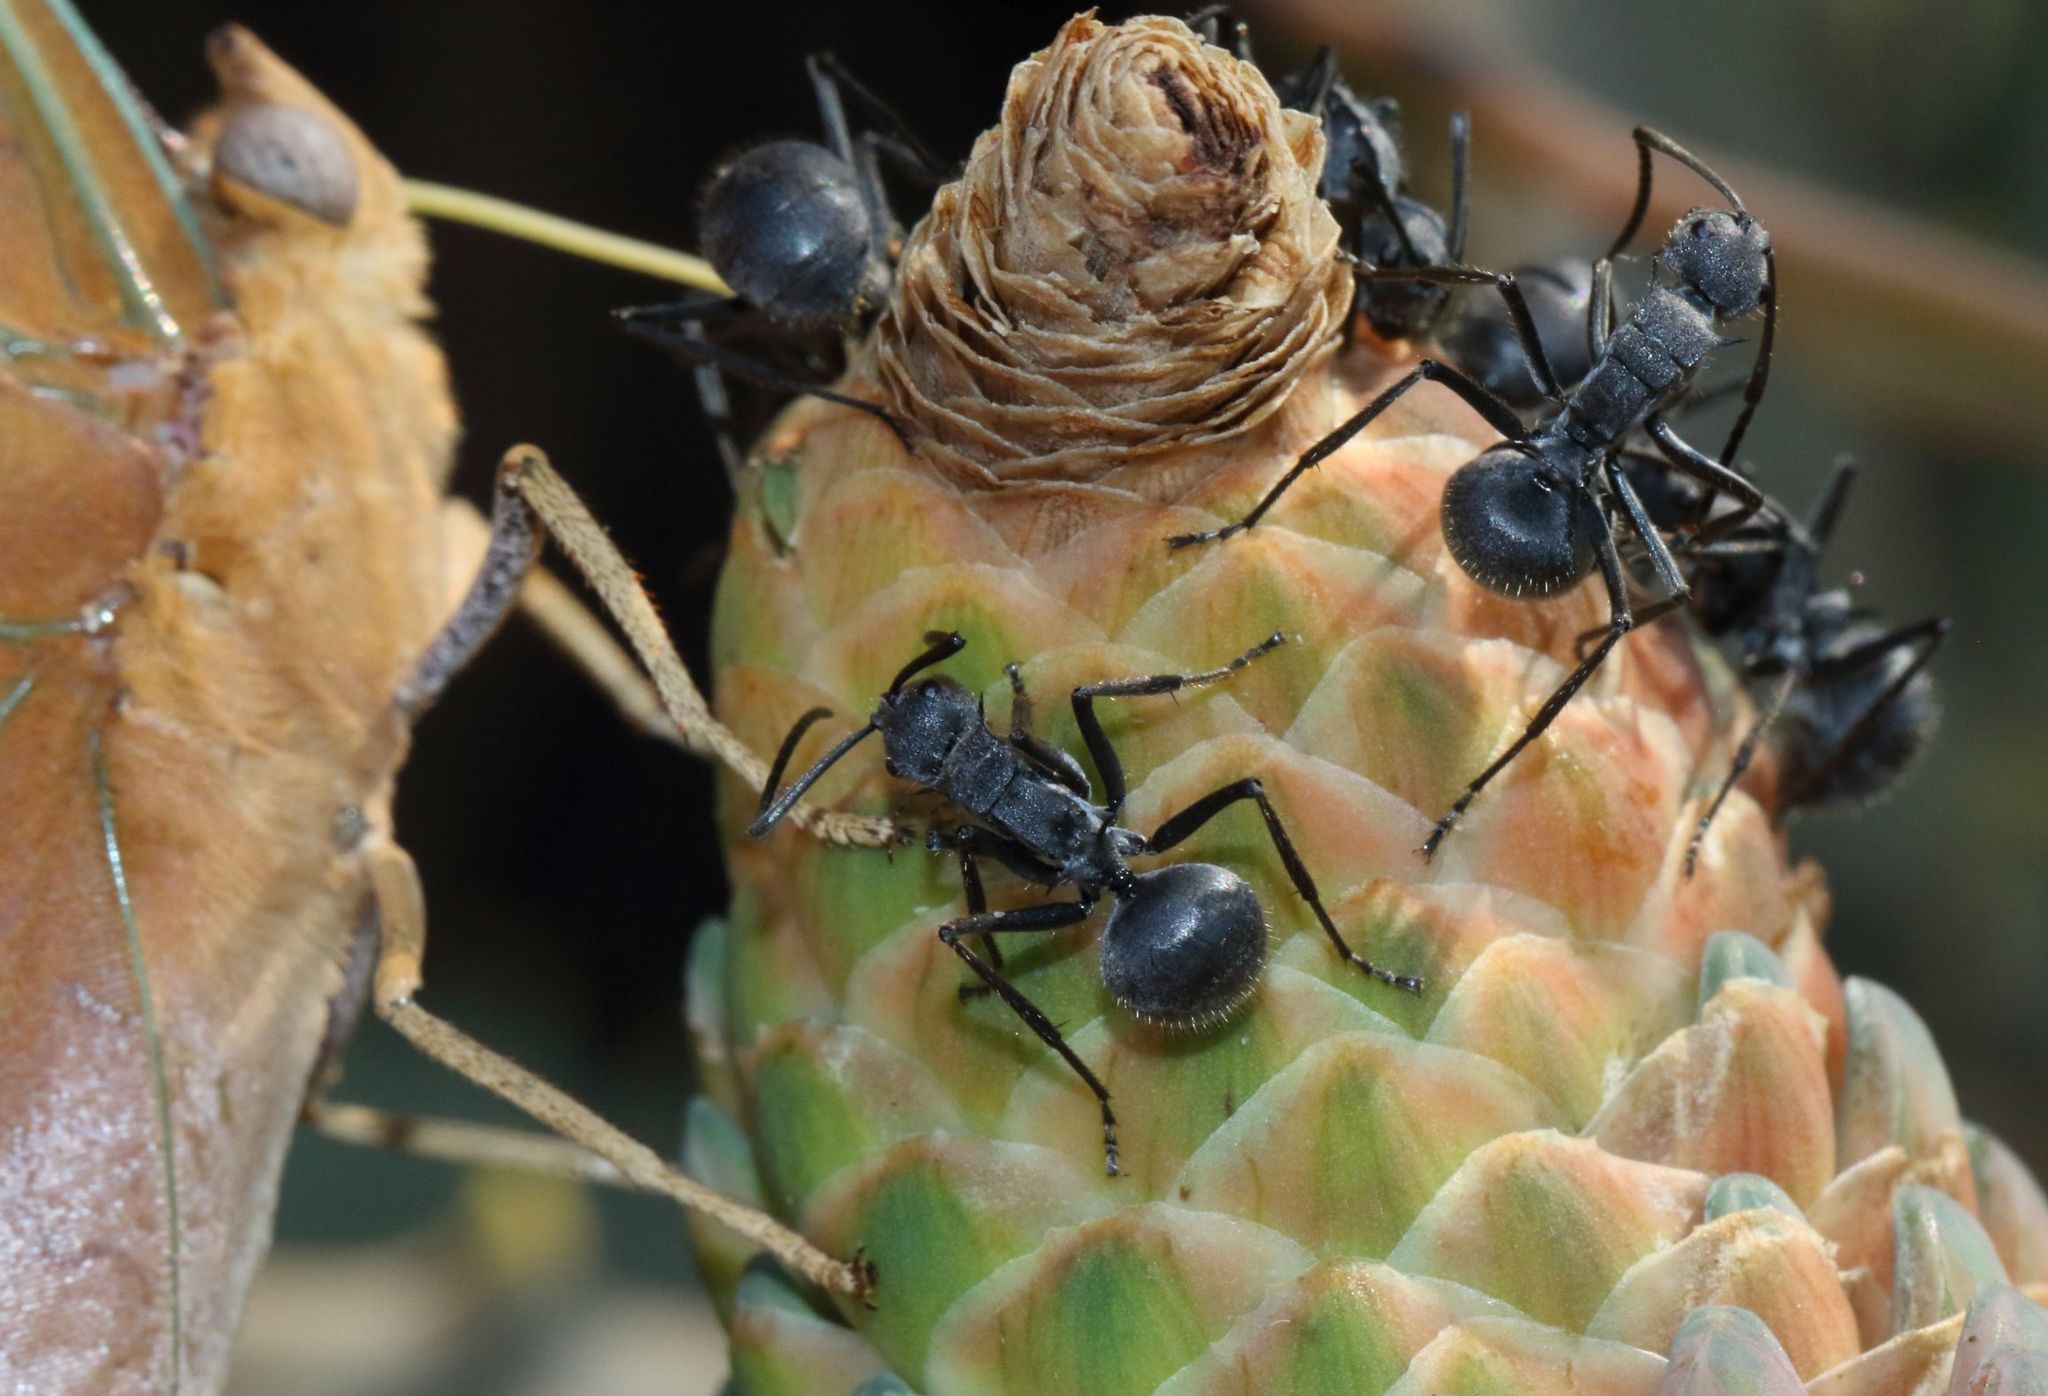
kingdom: Animalia
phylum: Arthropoda
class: Insecta
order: Hymenoptera
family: Formicidae
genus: Polyrhachis
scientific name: Polyrhachis schistacea
